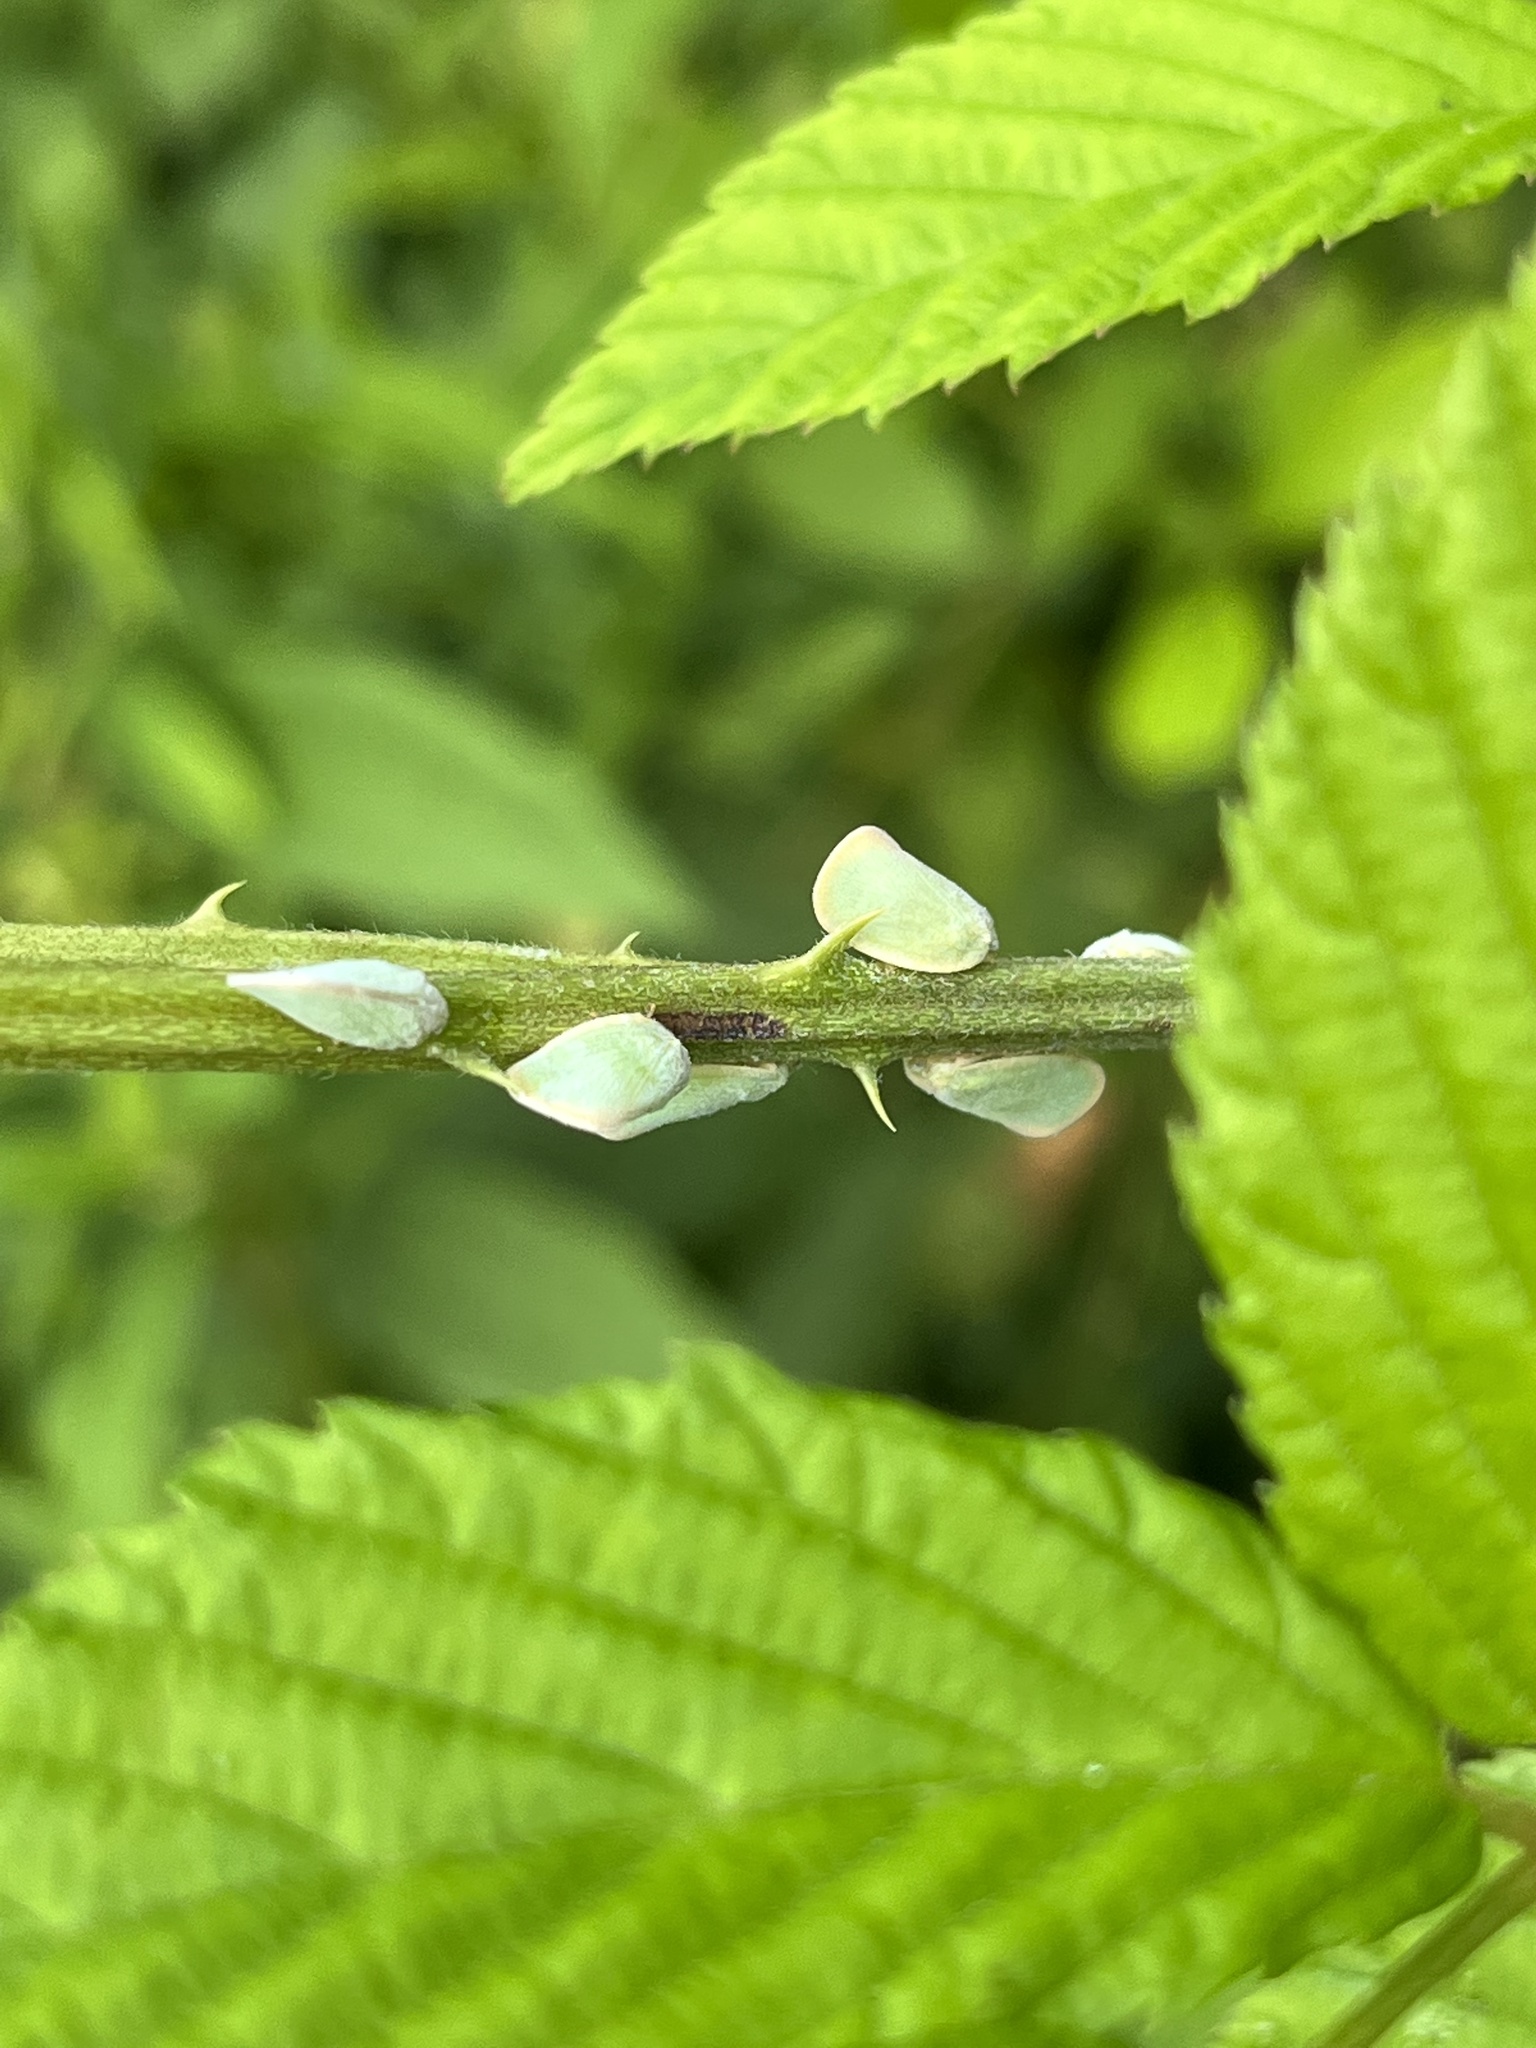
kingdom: Animalia
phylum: Arthropoda
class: Insecta
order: Hemiptera
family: Flatidae
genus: Ormenoides
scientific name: Ormenoides venusta
